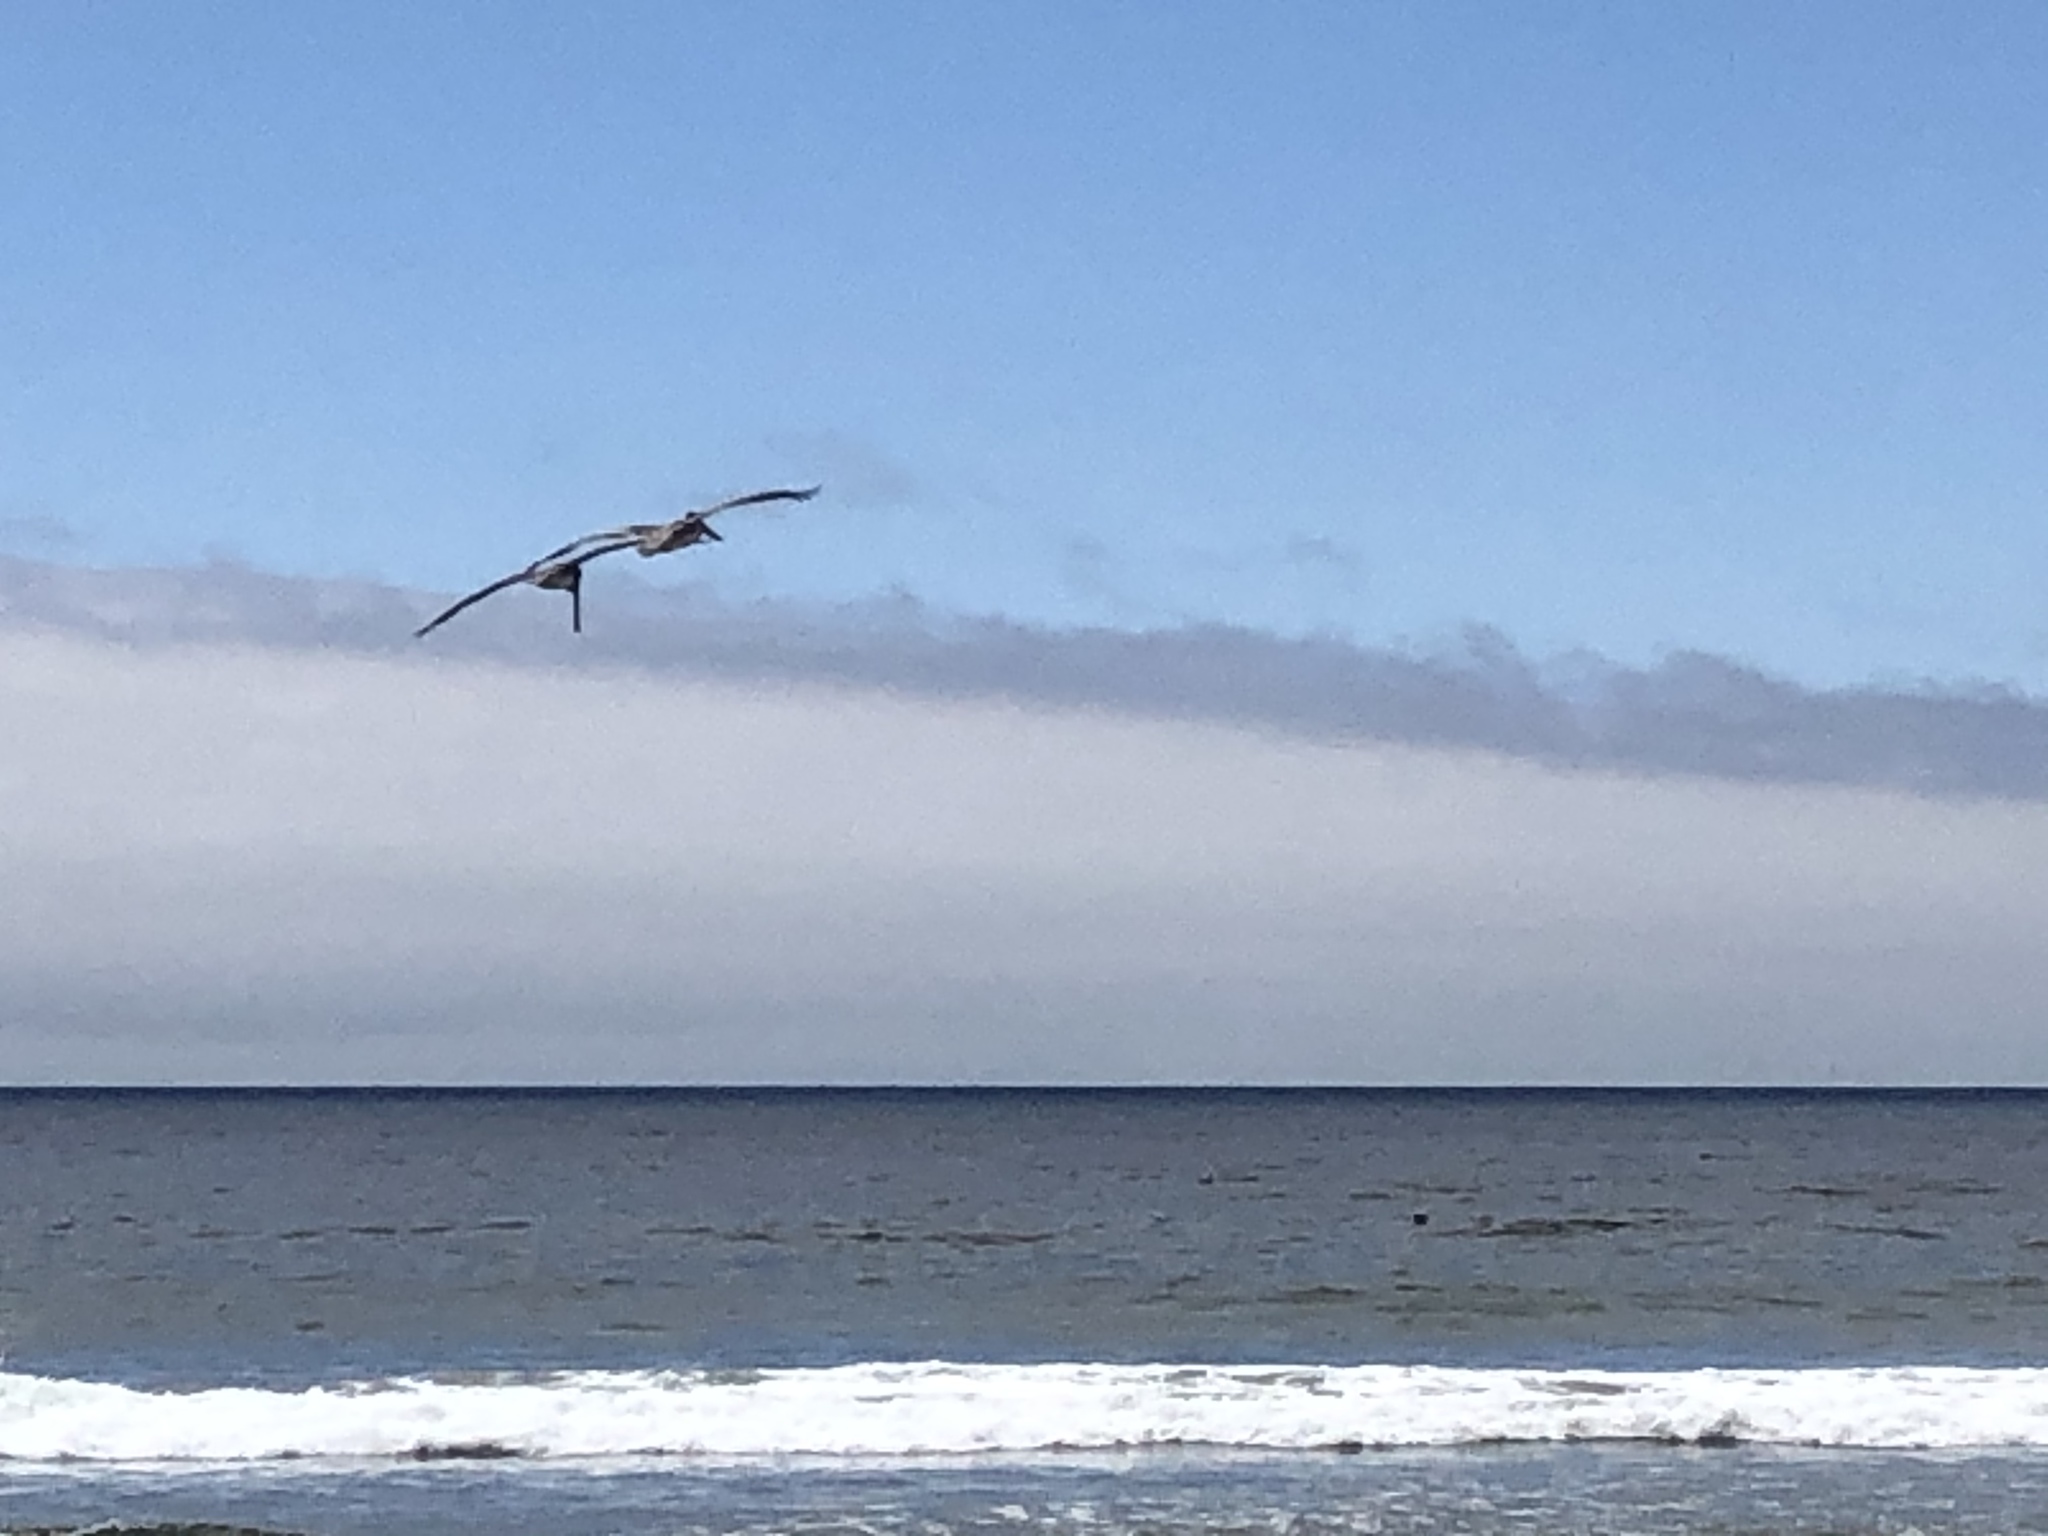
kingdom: Animalia
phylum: Chordata
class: Aves
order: Pelecaniformes
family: Pelecanidae
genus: Pelecanus
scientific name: Pelecanus occidentalis
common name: Brown pelican
